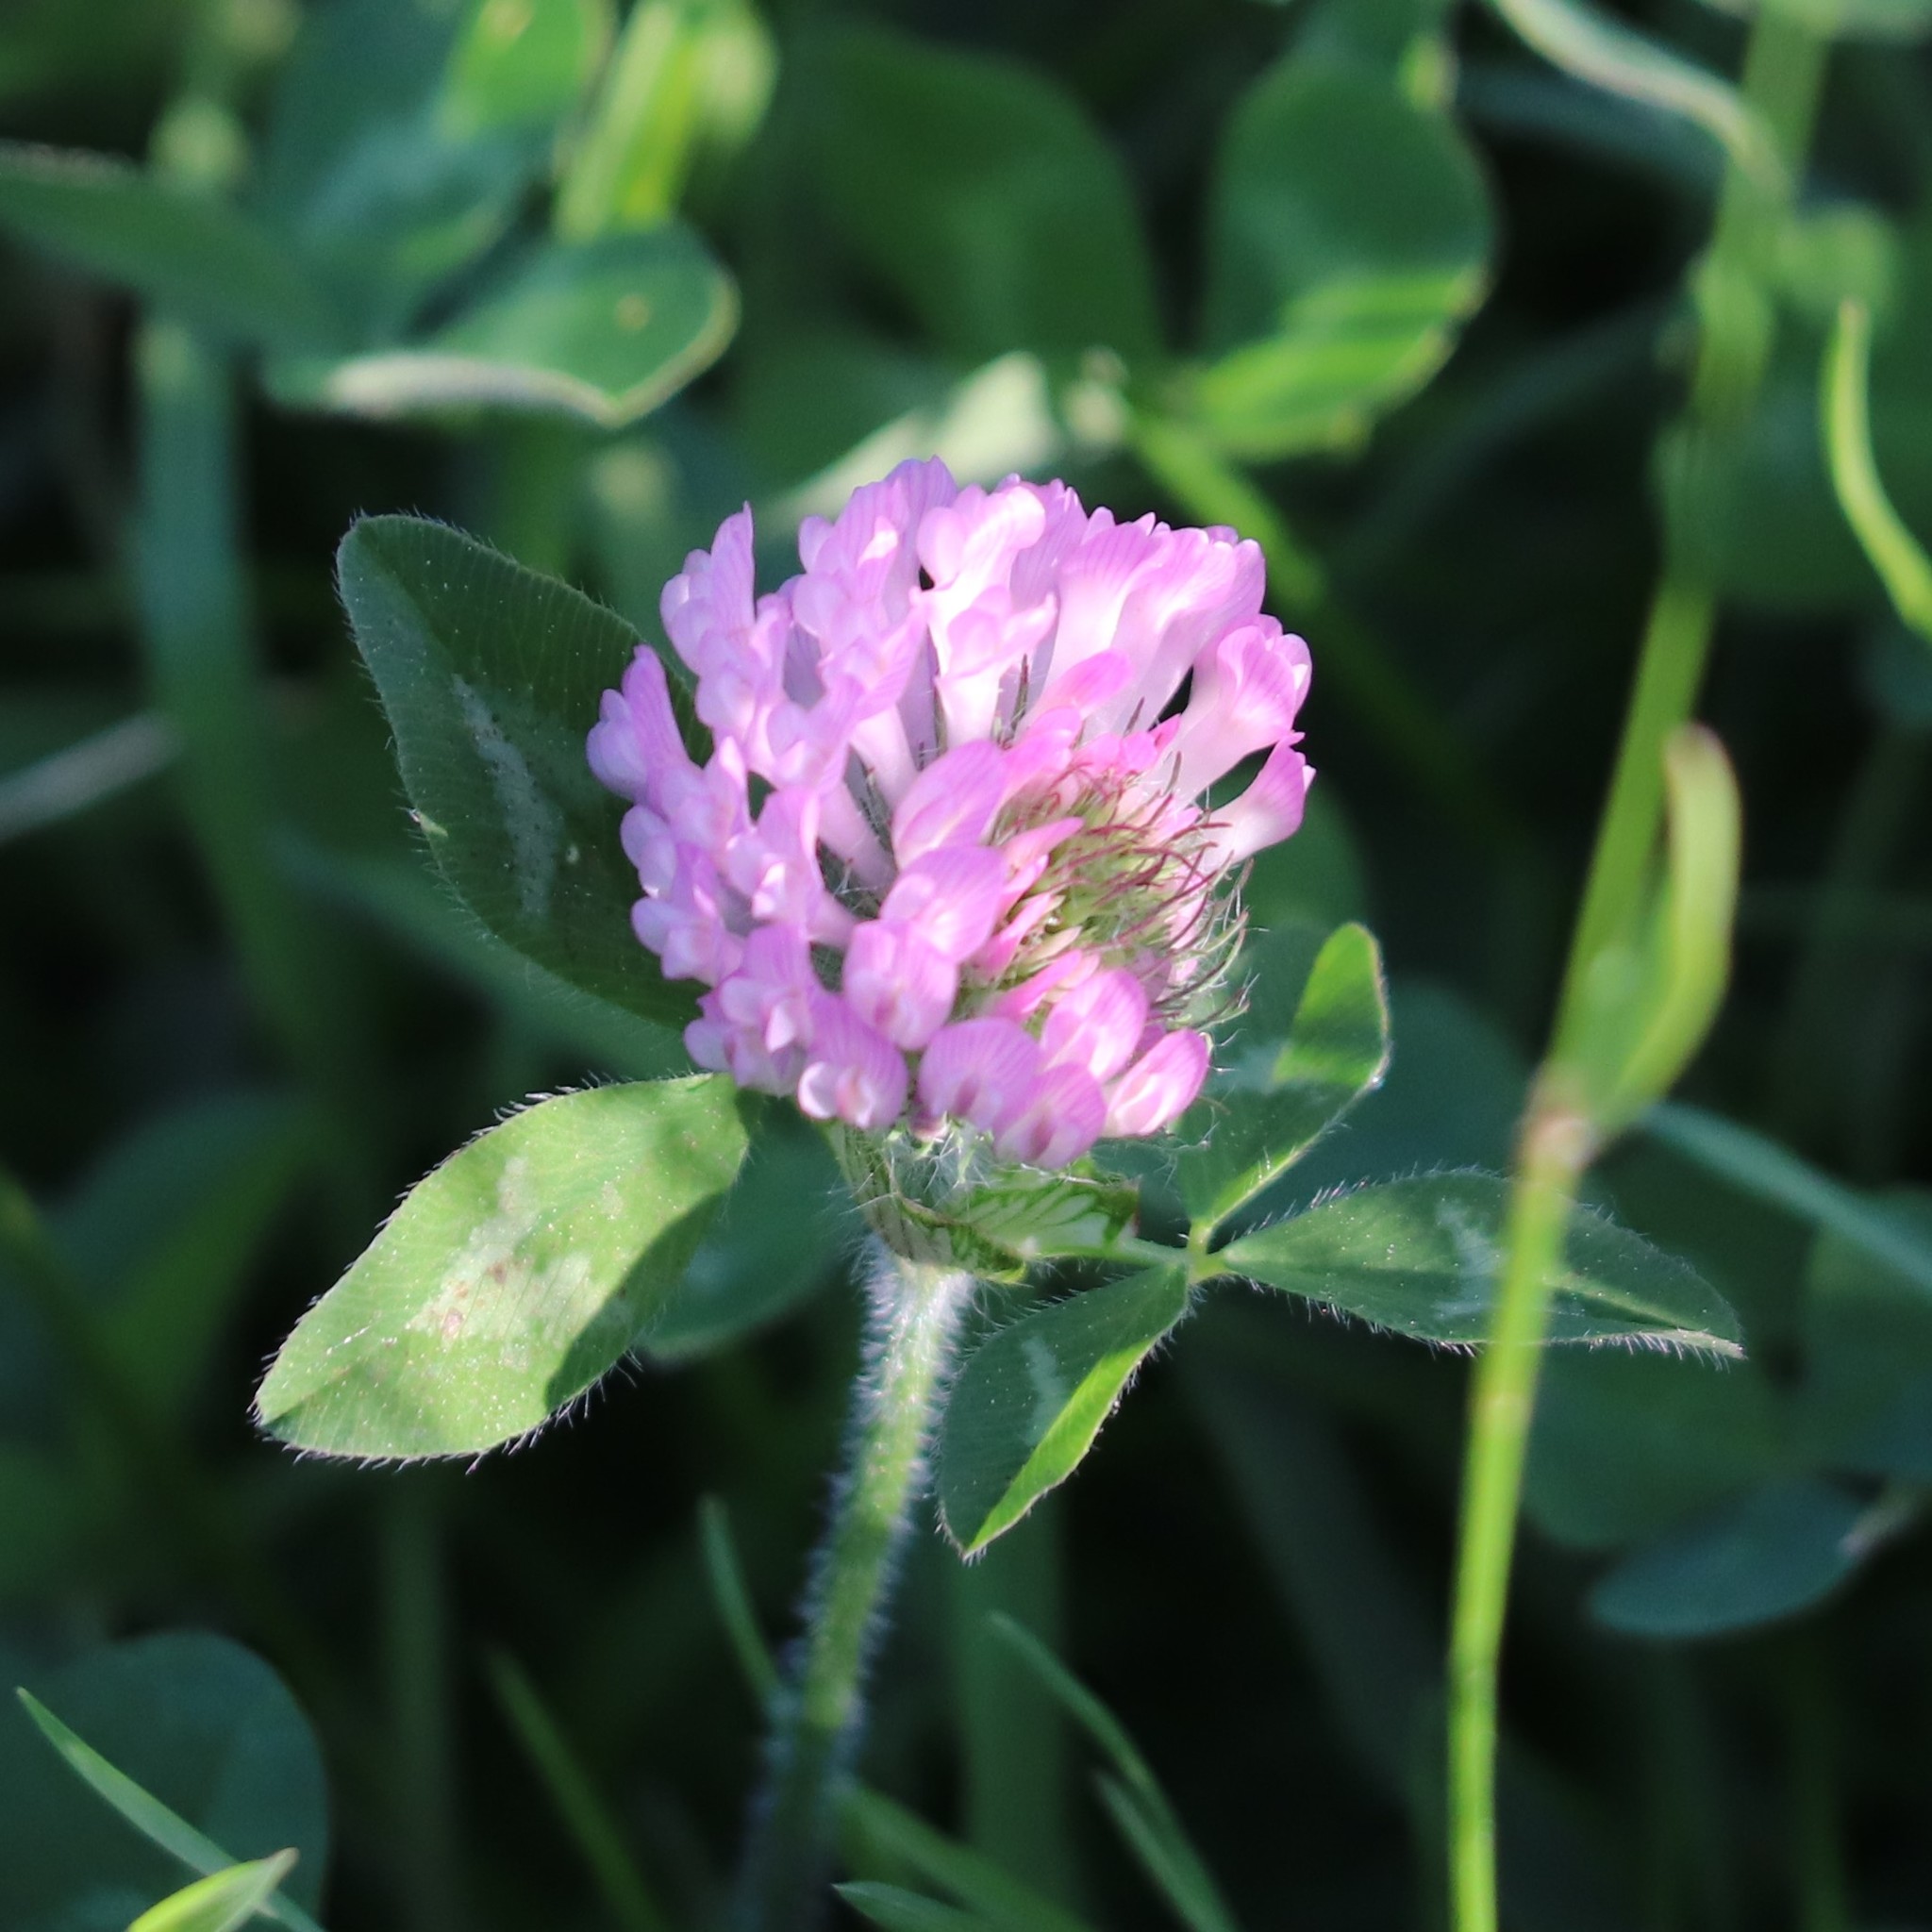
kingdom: Plantae
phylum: Tracheophyta
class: Magnoliopsida
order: Fabales
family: Fabaceae
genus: Trifolium
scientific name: Trifolium pratense
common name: Red clover
